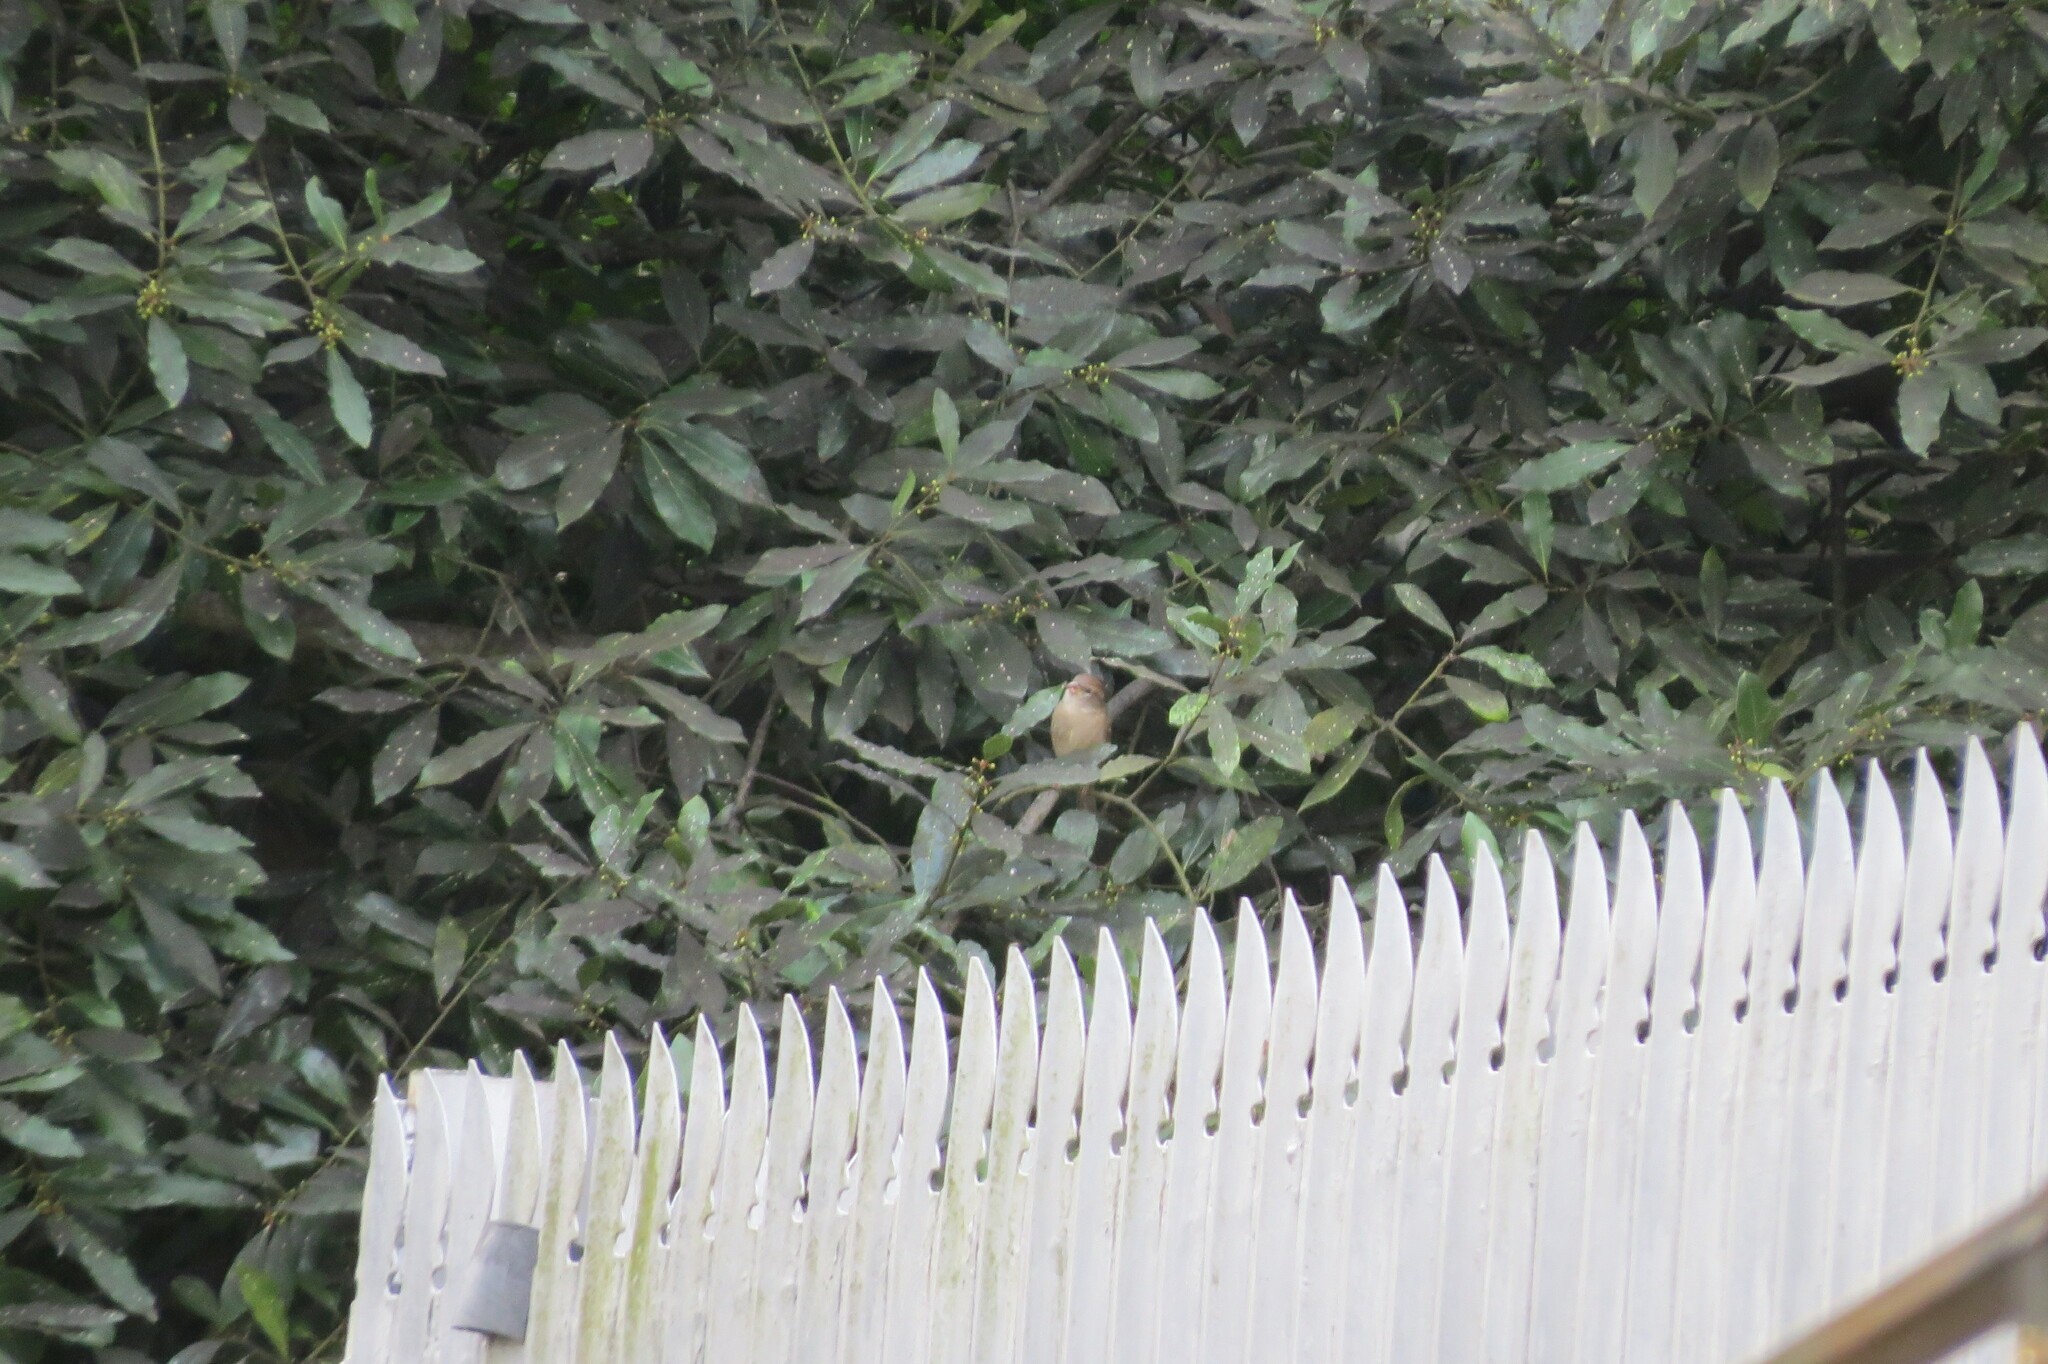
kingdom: Animalia
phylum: Chordata
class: Aves
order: Passeriformes
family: Passeridae
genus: Passer
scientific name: Passer domesticus
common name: House sparrow
